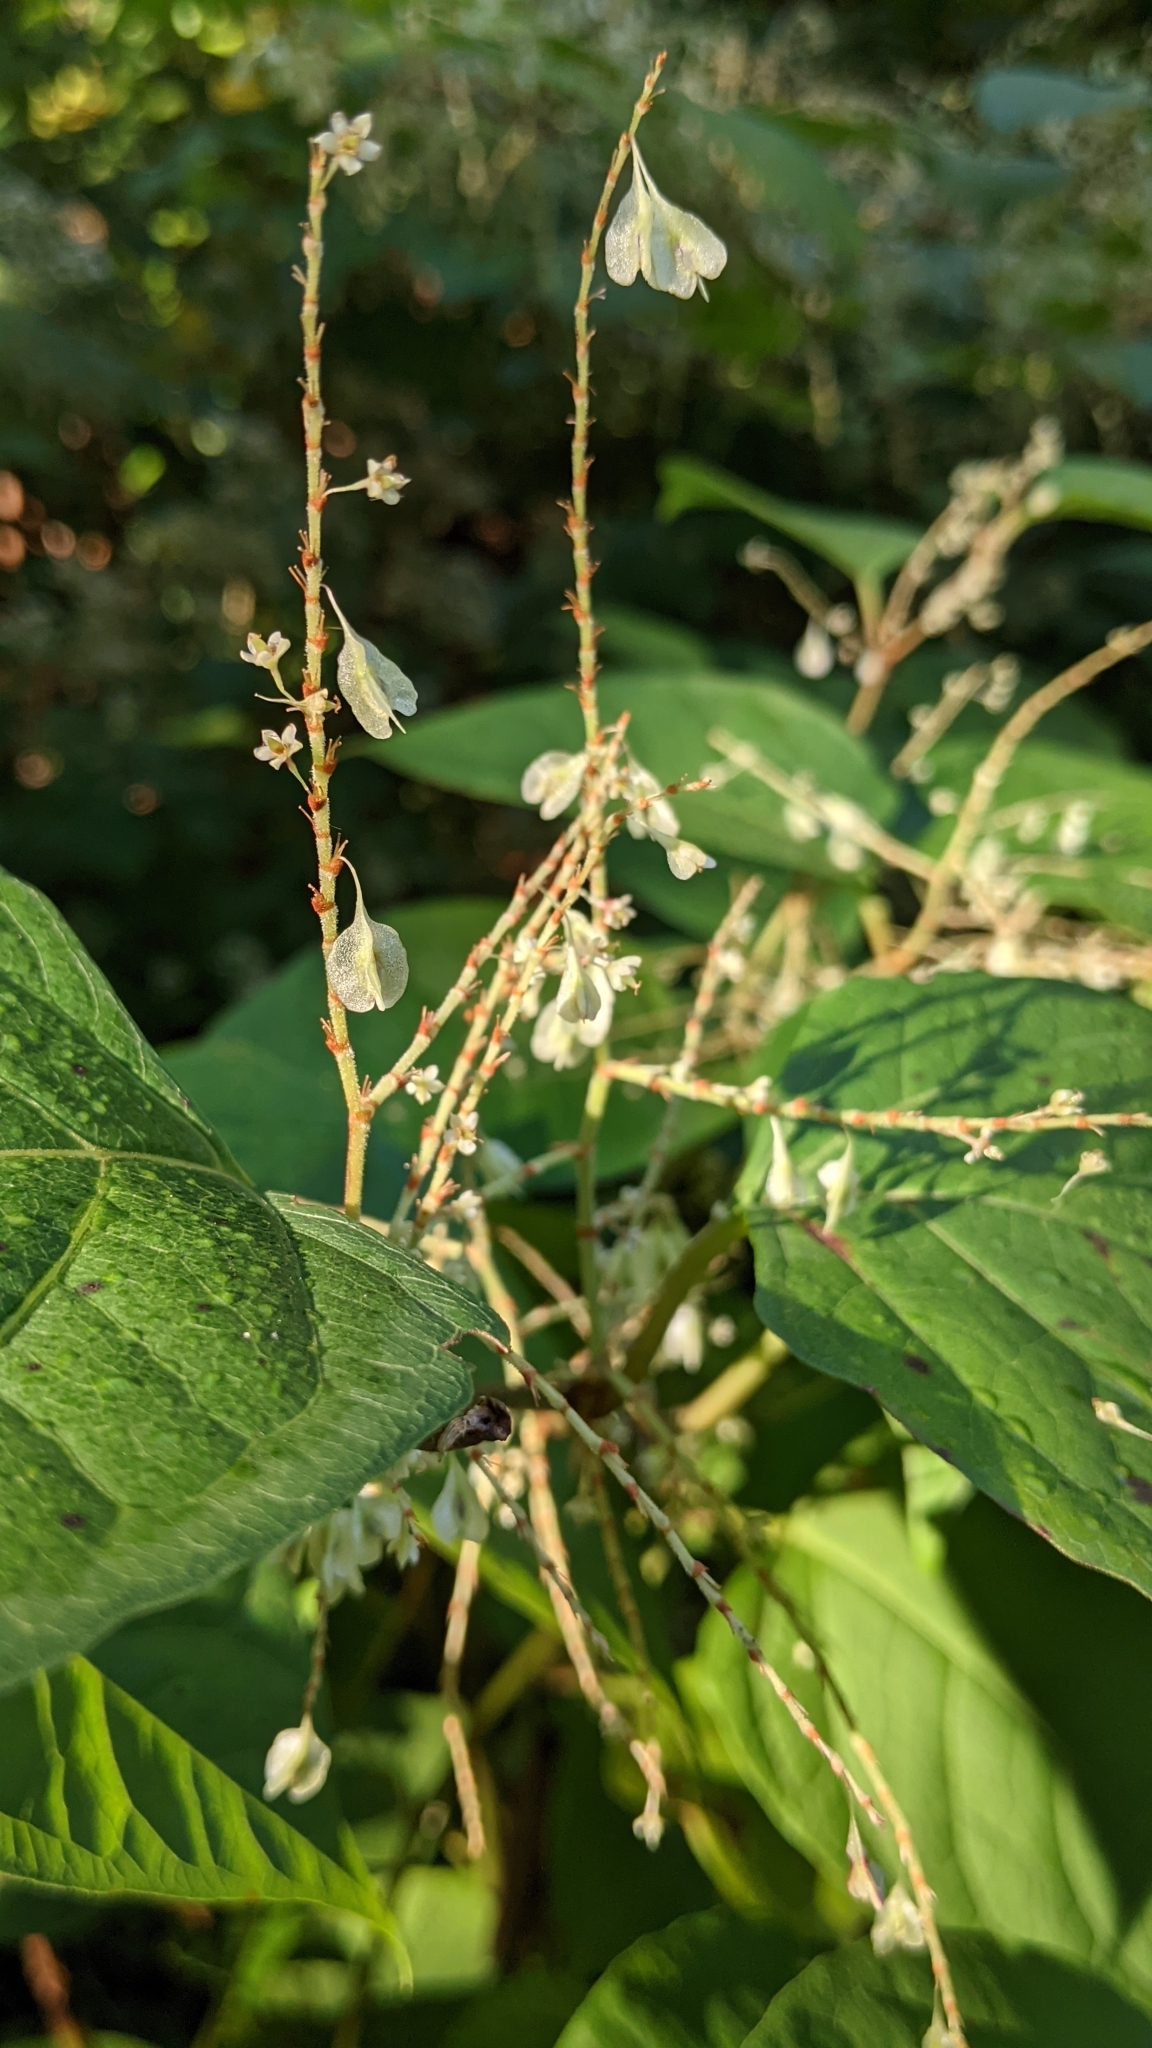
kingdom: Plantae
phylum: Tracheophyta
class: Magnoliopsida
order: Caryophyllales
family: Polygonaceae
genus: Reynoutria
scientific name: Reynoutria japonica
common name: Japanese knotweed
